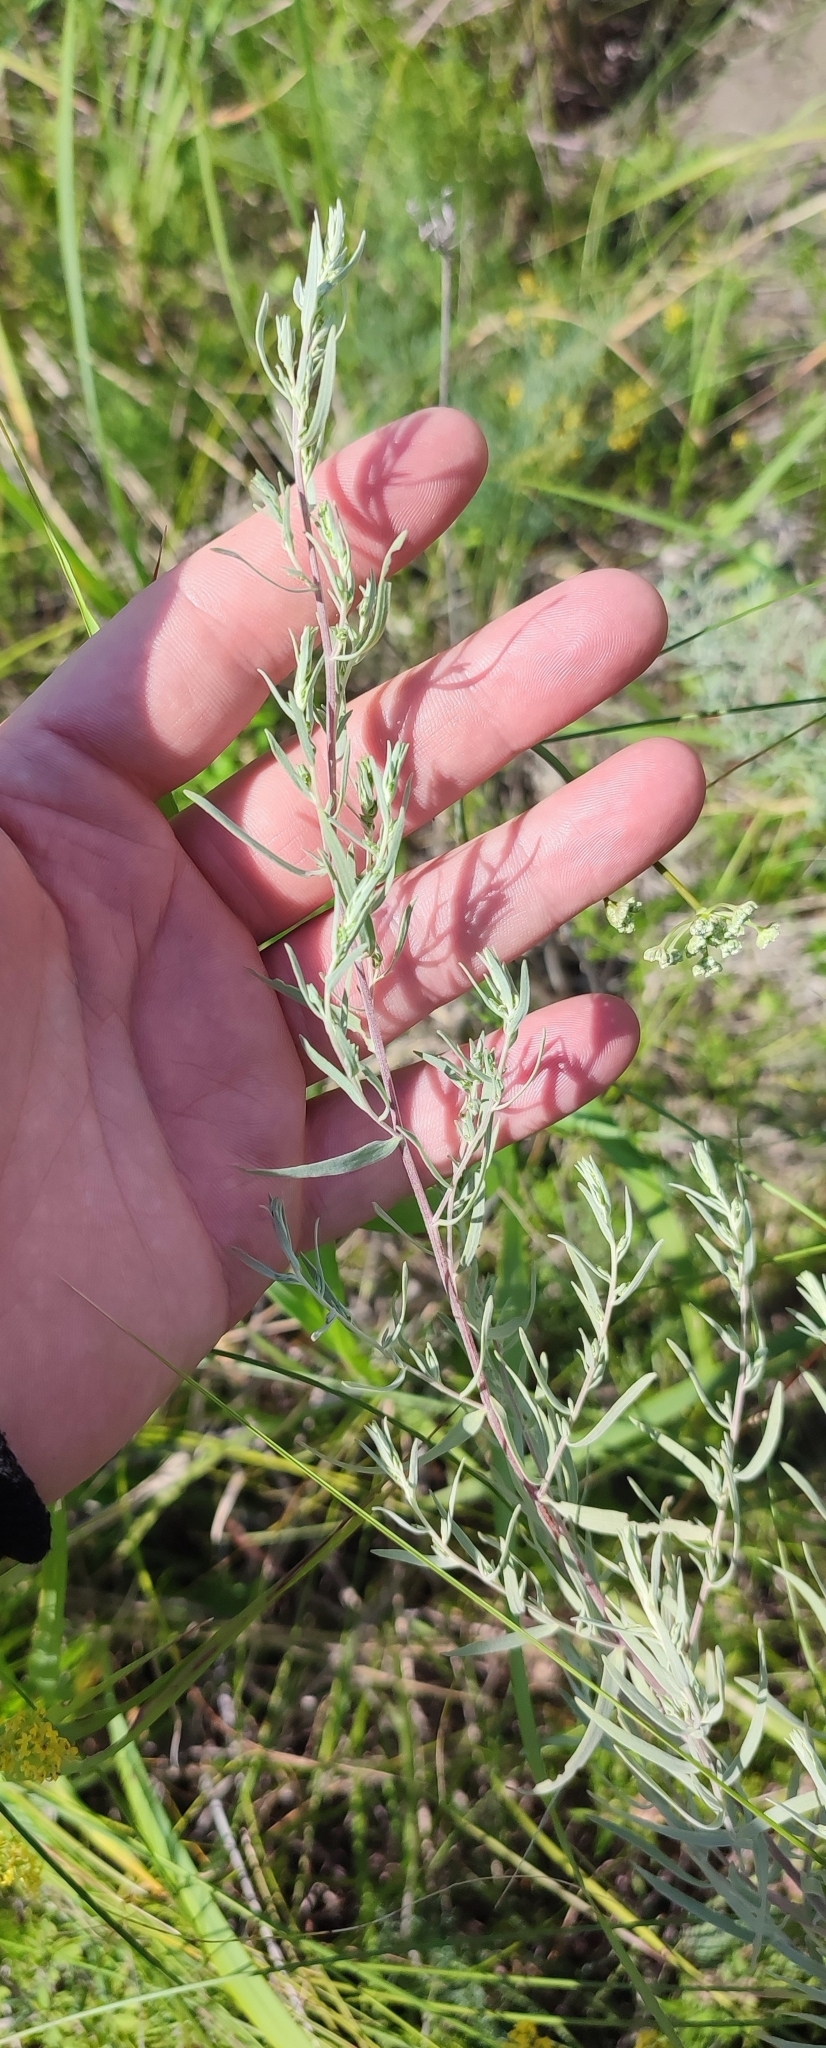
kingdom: Plantae
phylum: Tracheophyta
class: Magnoliopsida
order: Asterales
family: Asteraceae
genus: Artemisia
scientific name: Artemisia glauca
